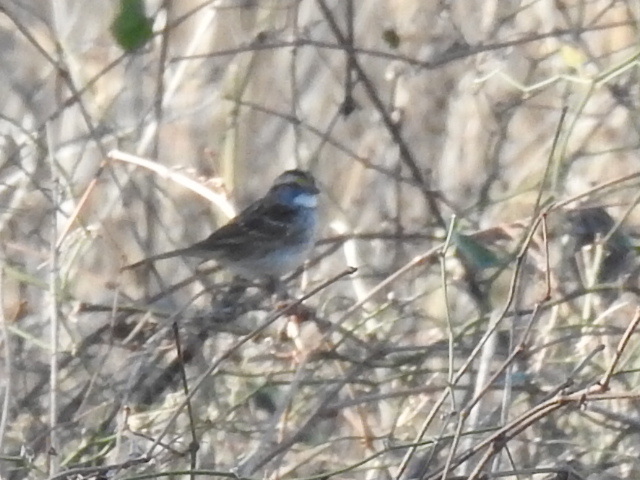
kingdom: Animalia
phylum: Chordata
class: Aves
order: Passeriformes
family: Passerellidae
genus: Zonotrichia
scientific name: Zonotrichia albicollis
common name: White-throated sparrow
